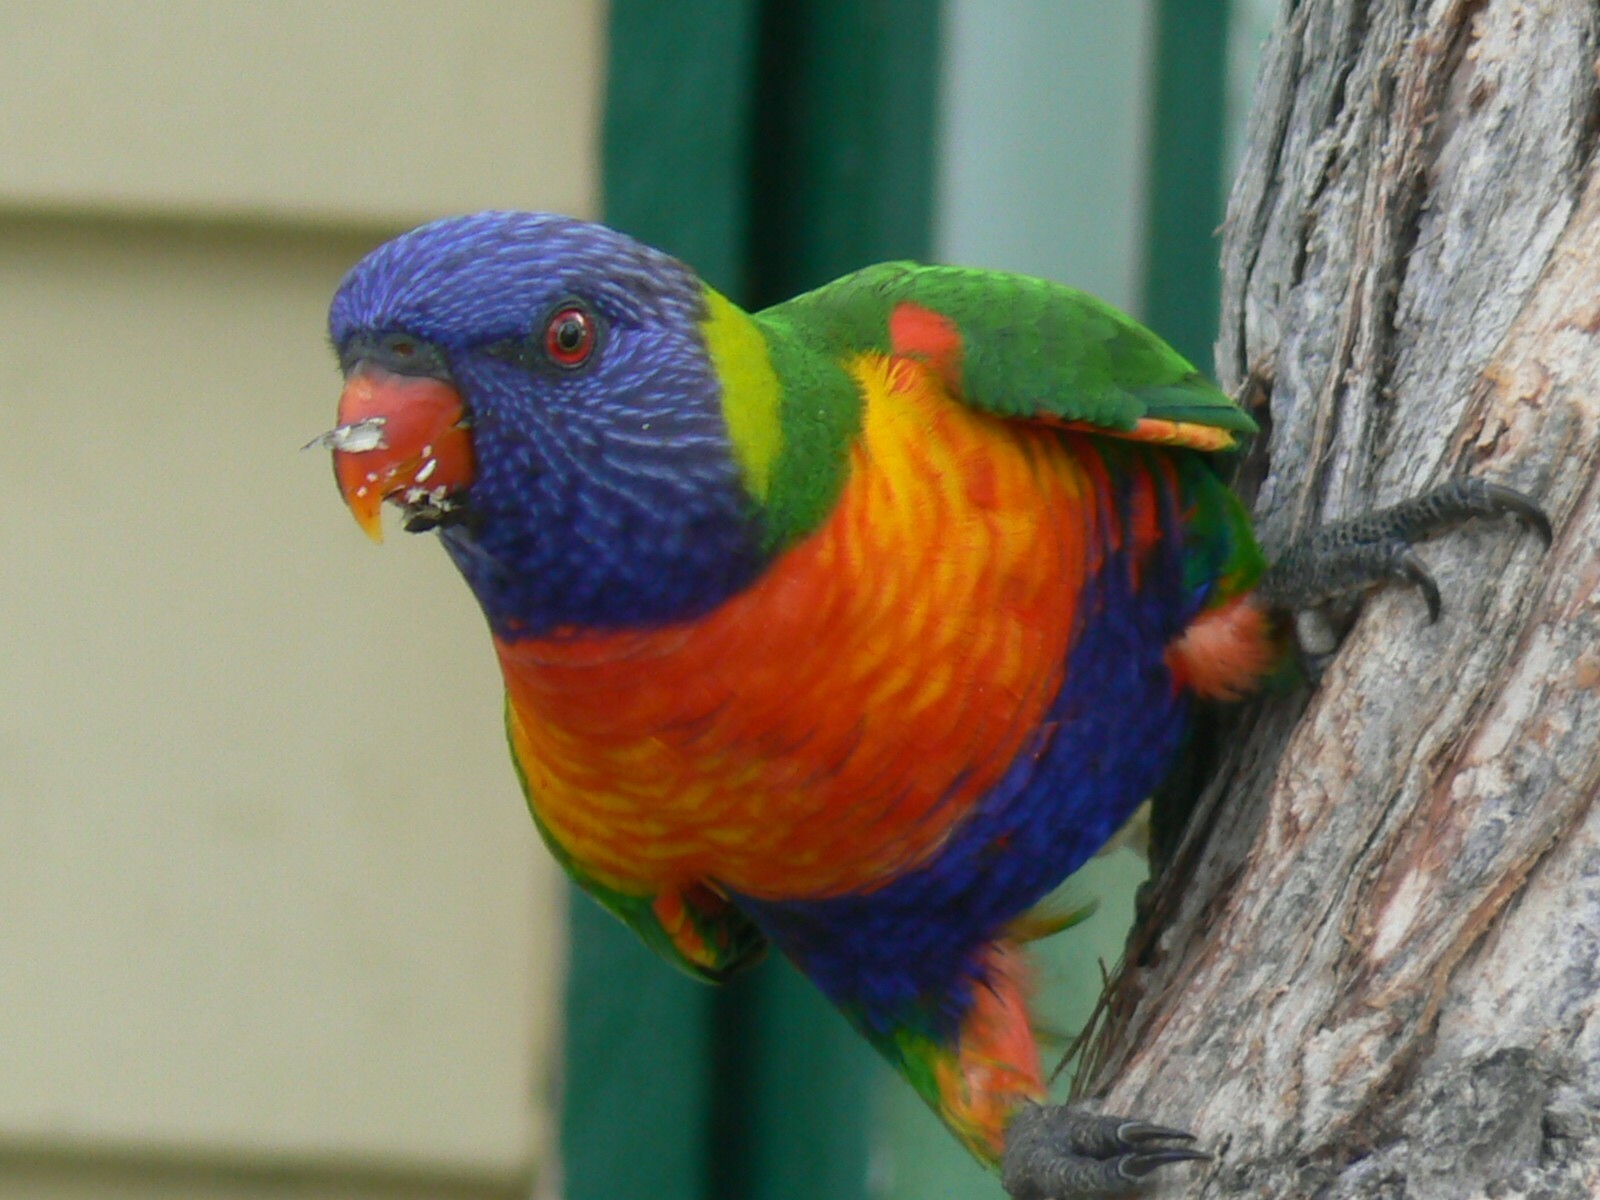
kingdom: Animalia
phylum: Chordata
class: Aves
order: Psittaciformes
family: Psittacidae
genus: Trichoglossus
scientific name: Trichoglossus haematodus
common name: Coconut lorikeet
